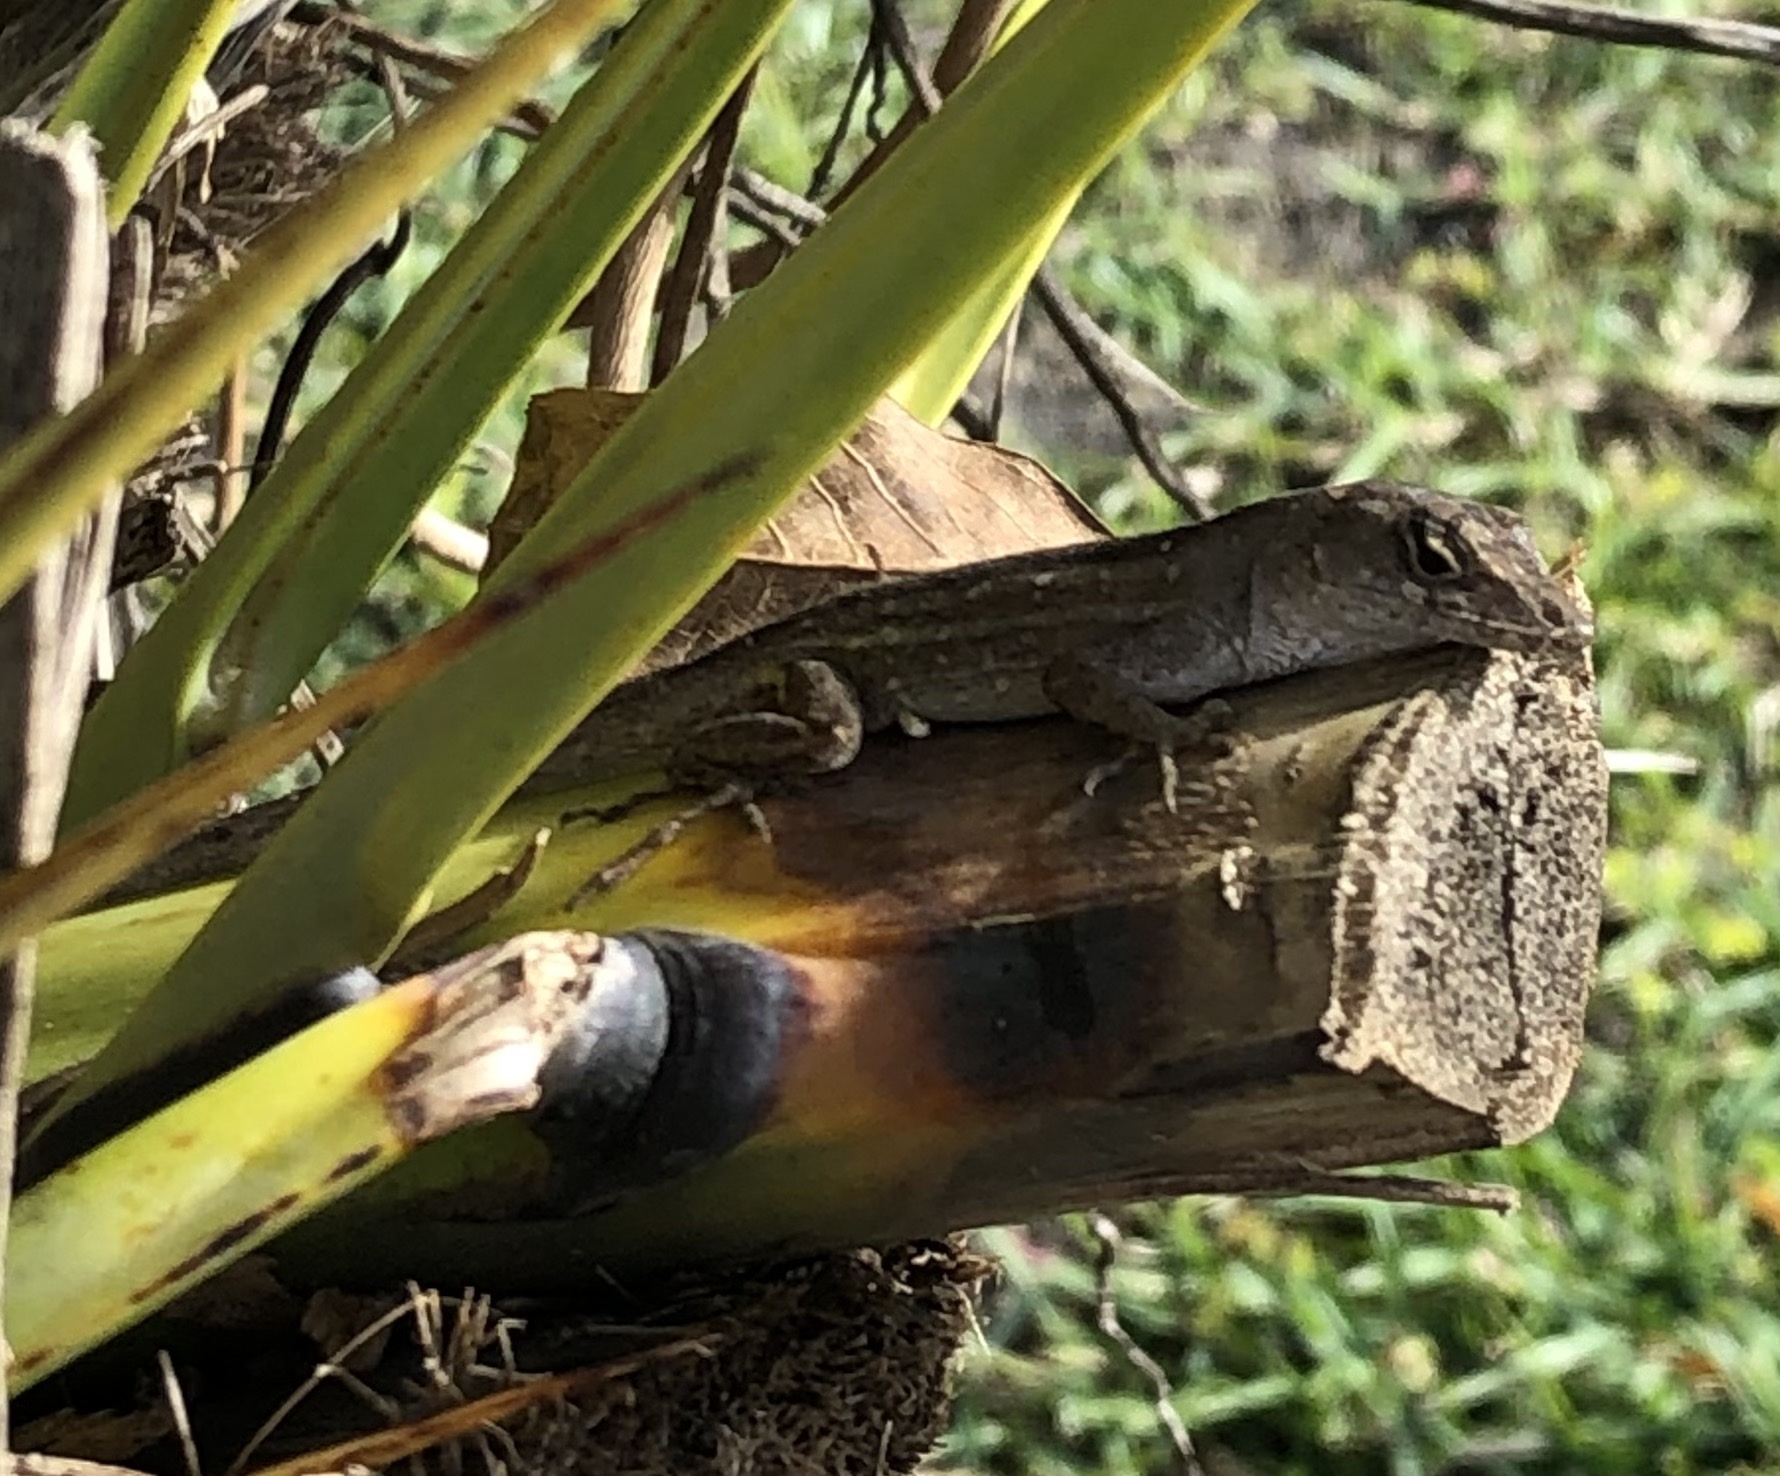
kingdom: Animalia
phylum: Chordata
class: Squamata
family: Dactyloidae
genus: Anolis
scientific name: Anolis sagrei
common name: Brown anole
